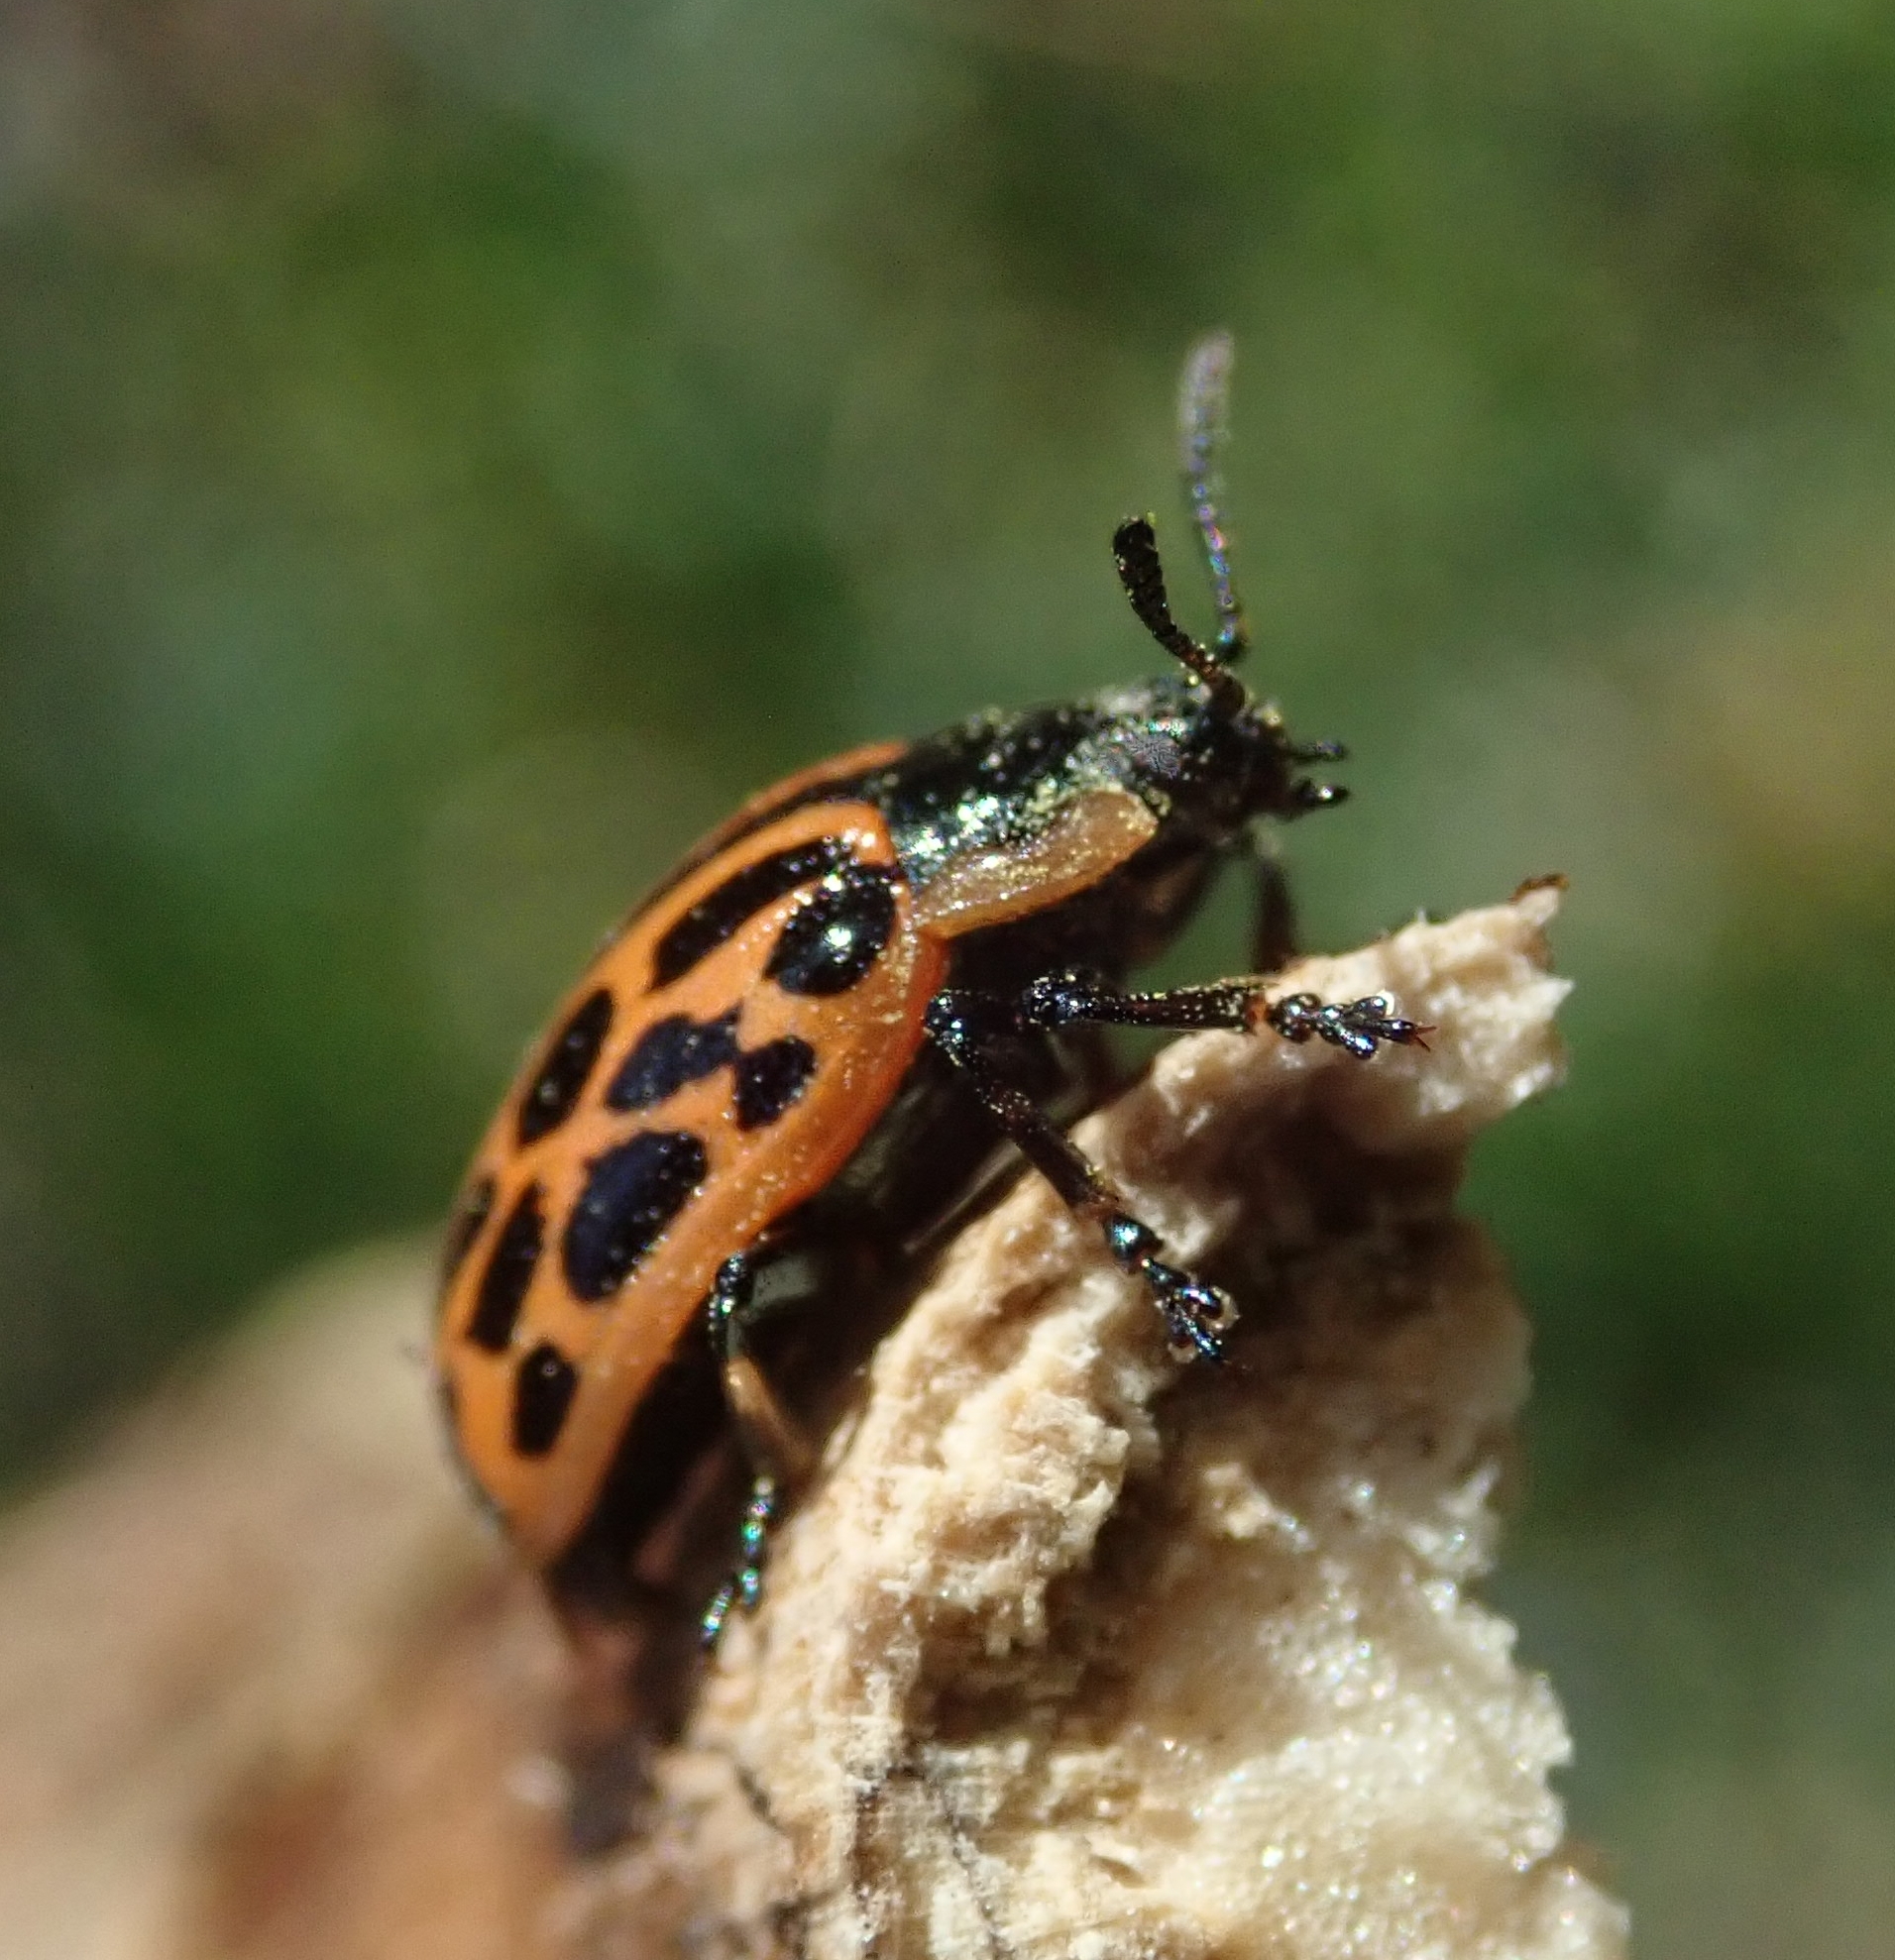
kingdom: Animalia
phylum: Arthropoda
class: Insecta
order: Coleoptera
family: Chrysomelidae
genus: Chrysomela
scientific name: Chrysomela vigintipunctata
